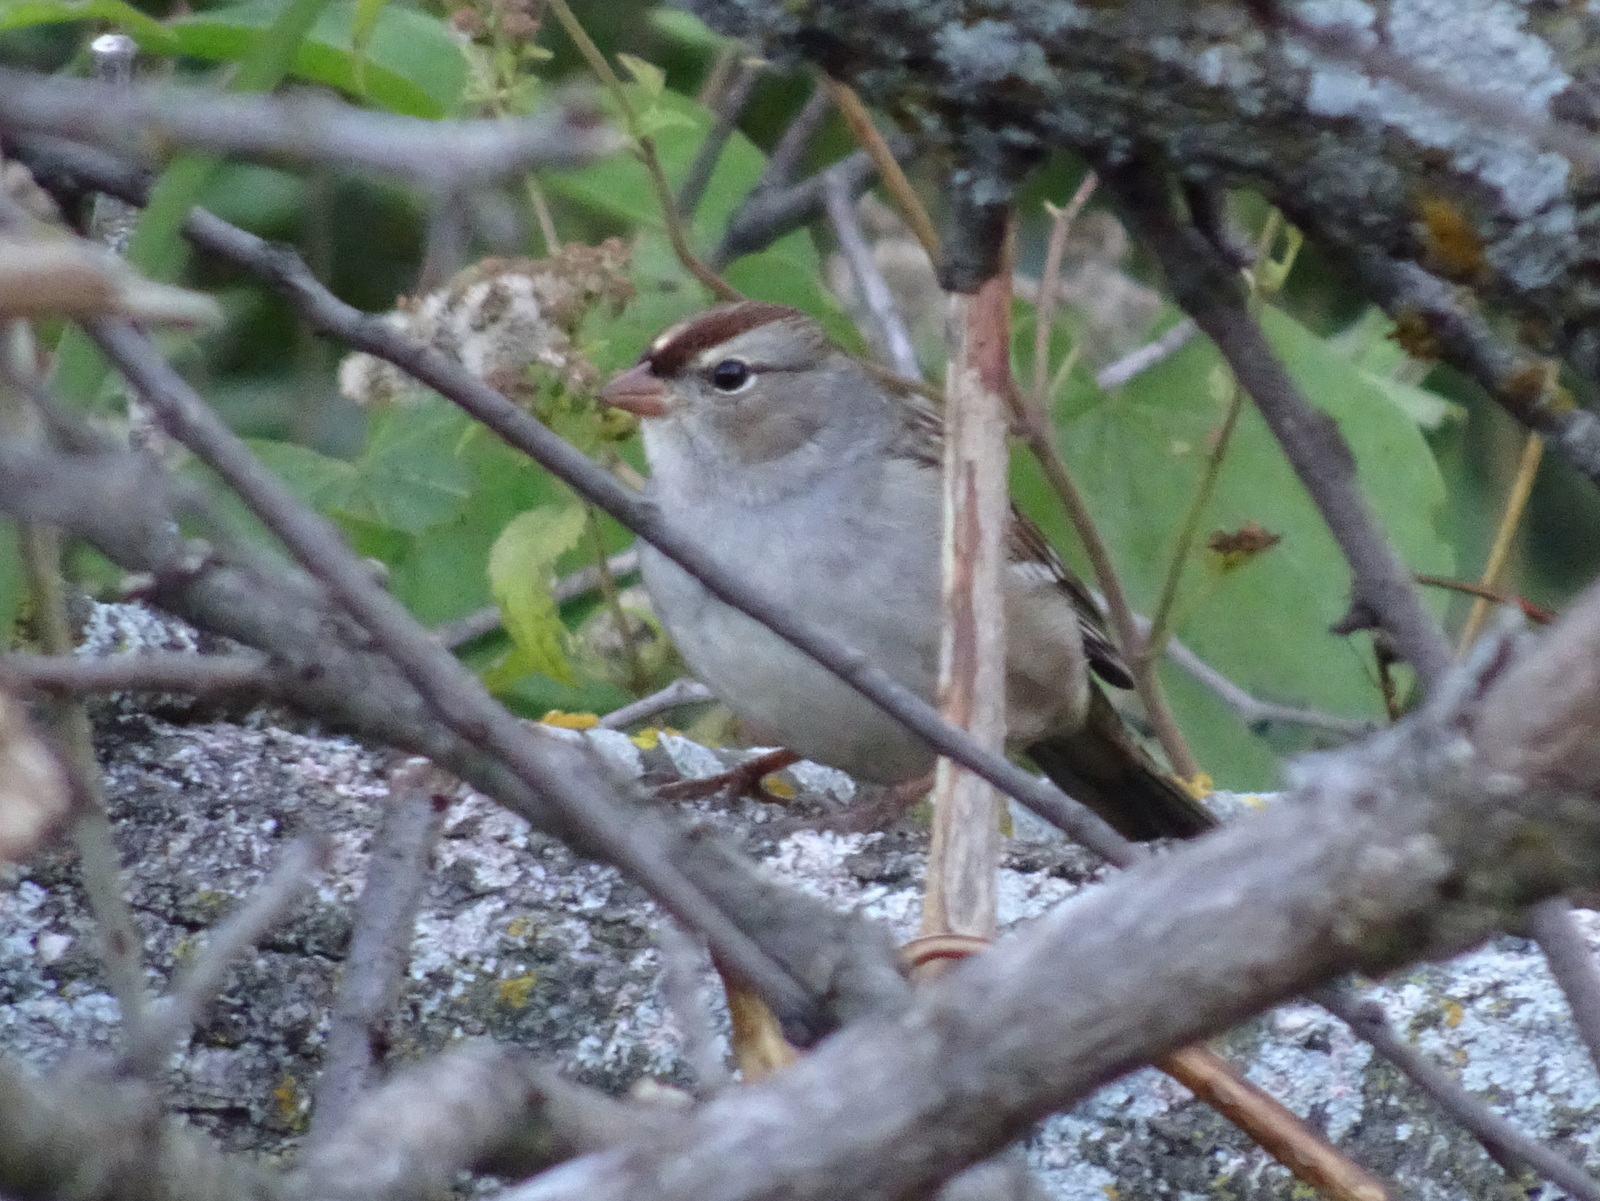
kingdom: Animalia
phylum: Chordata
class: Aves
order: Passeriformes
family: Passerellidae
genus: Zonotrichia
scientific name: Zonotrichia leucophrys
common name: White-crowned sparrow
